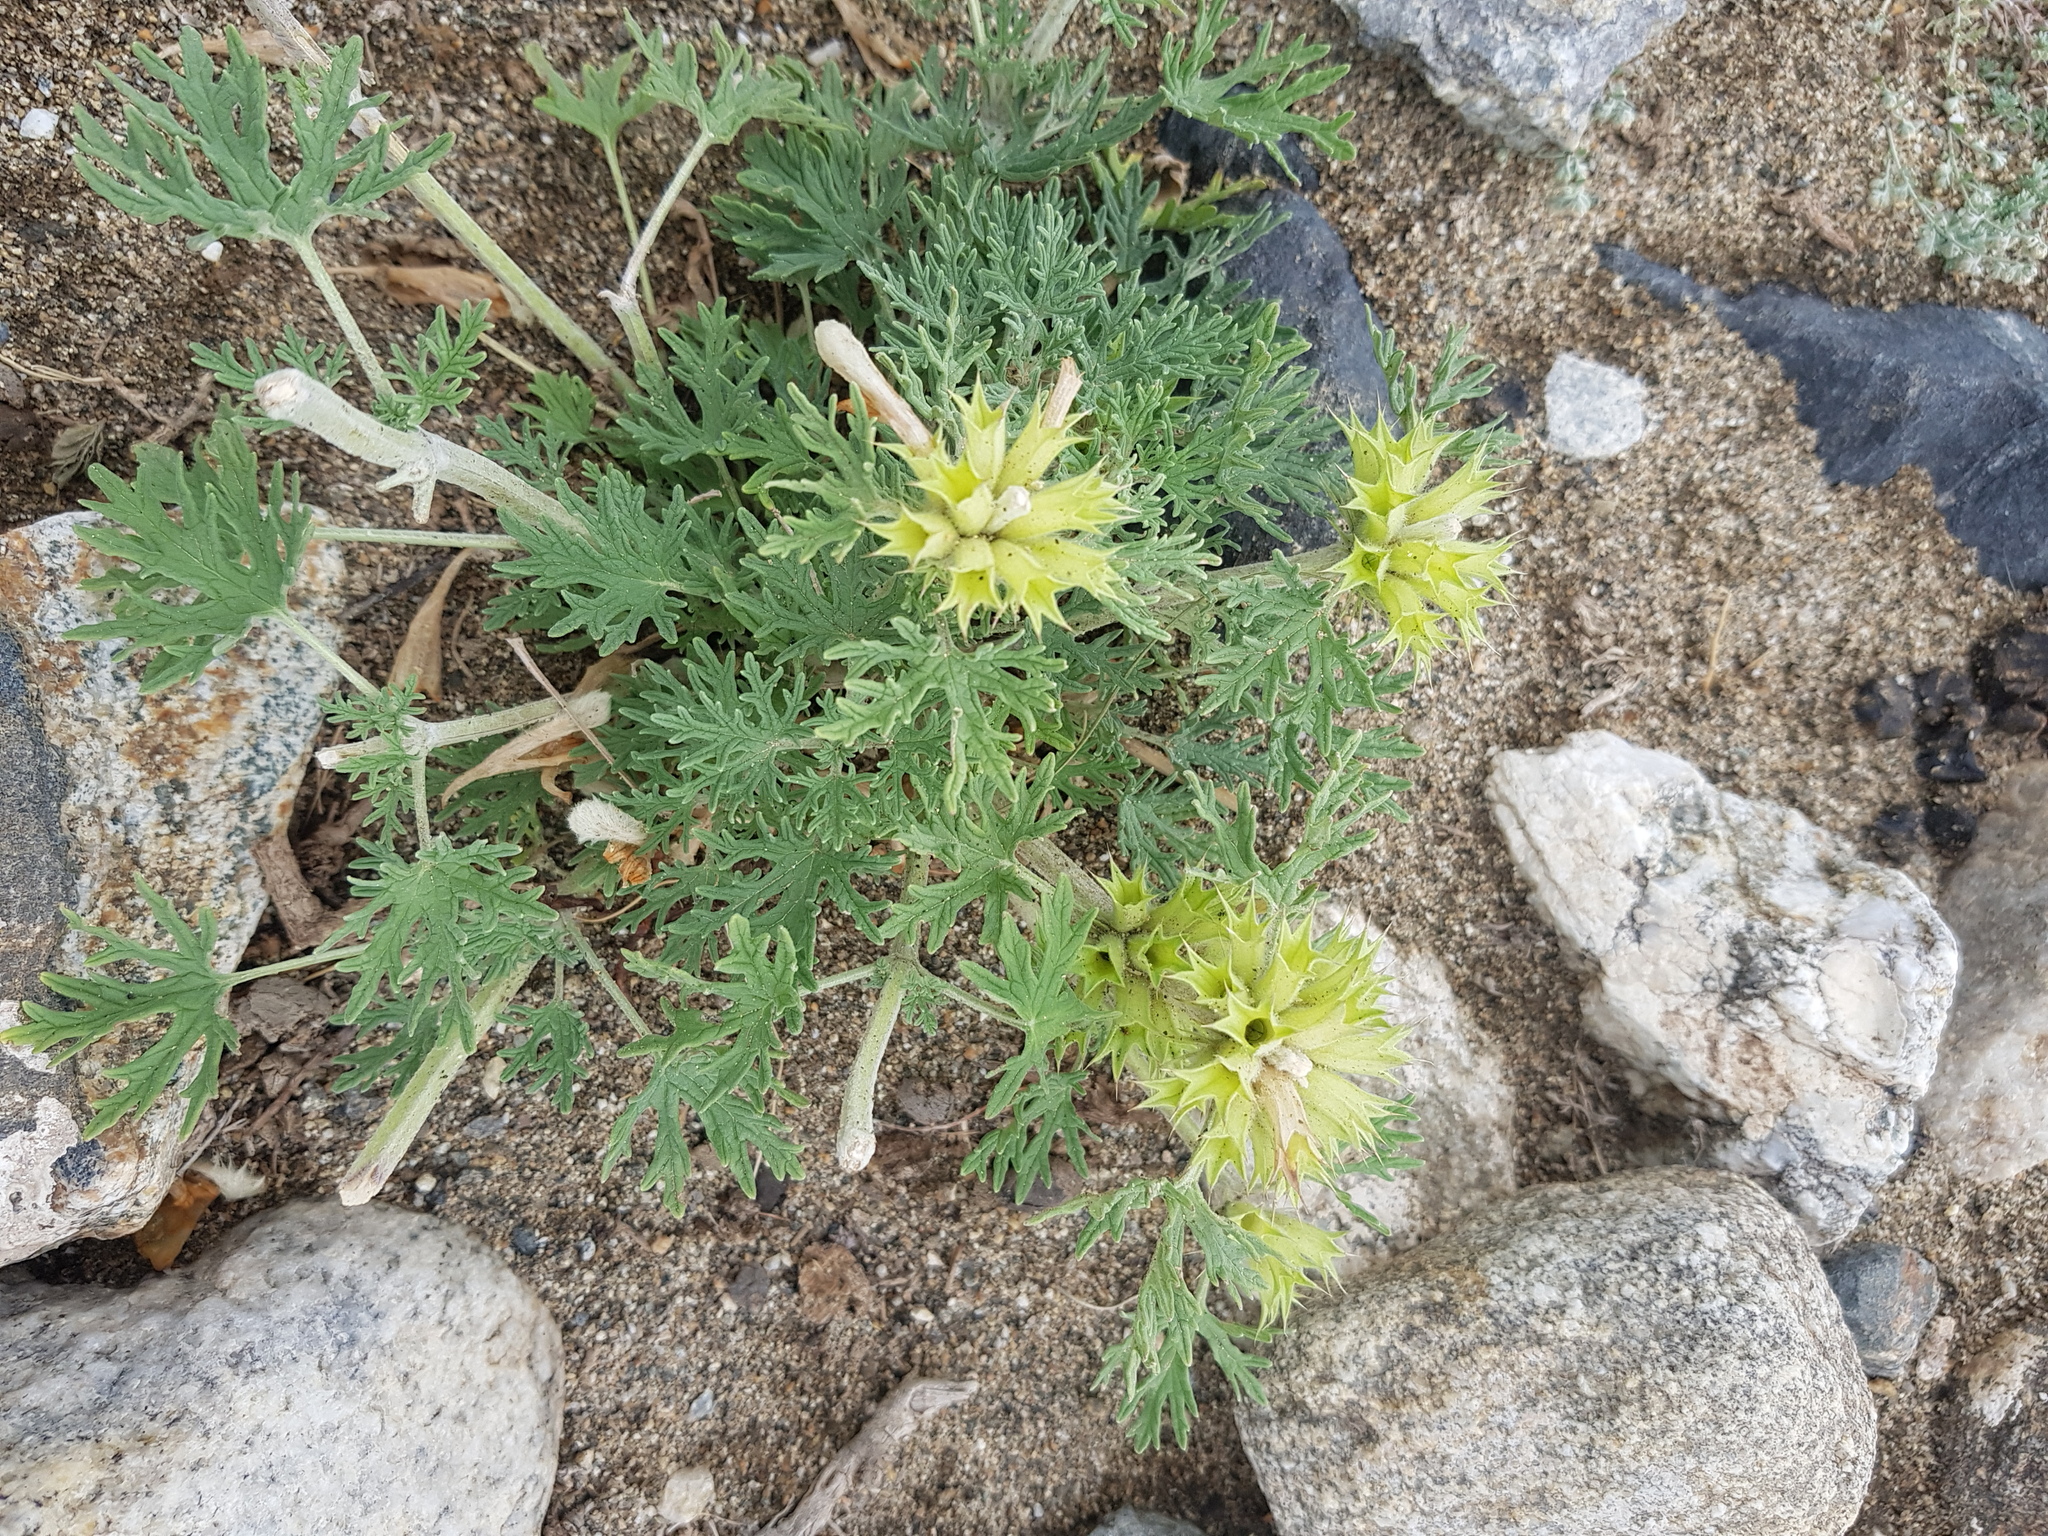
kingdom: Plantae
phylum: Tracheophyta
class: Magnoliopsida
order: Lamiales
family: Lamiaceae
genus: Panzerina
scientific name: Panzerina lanata
